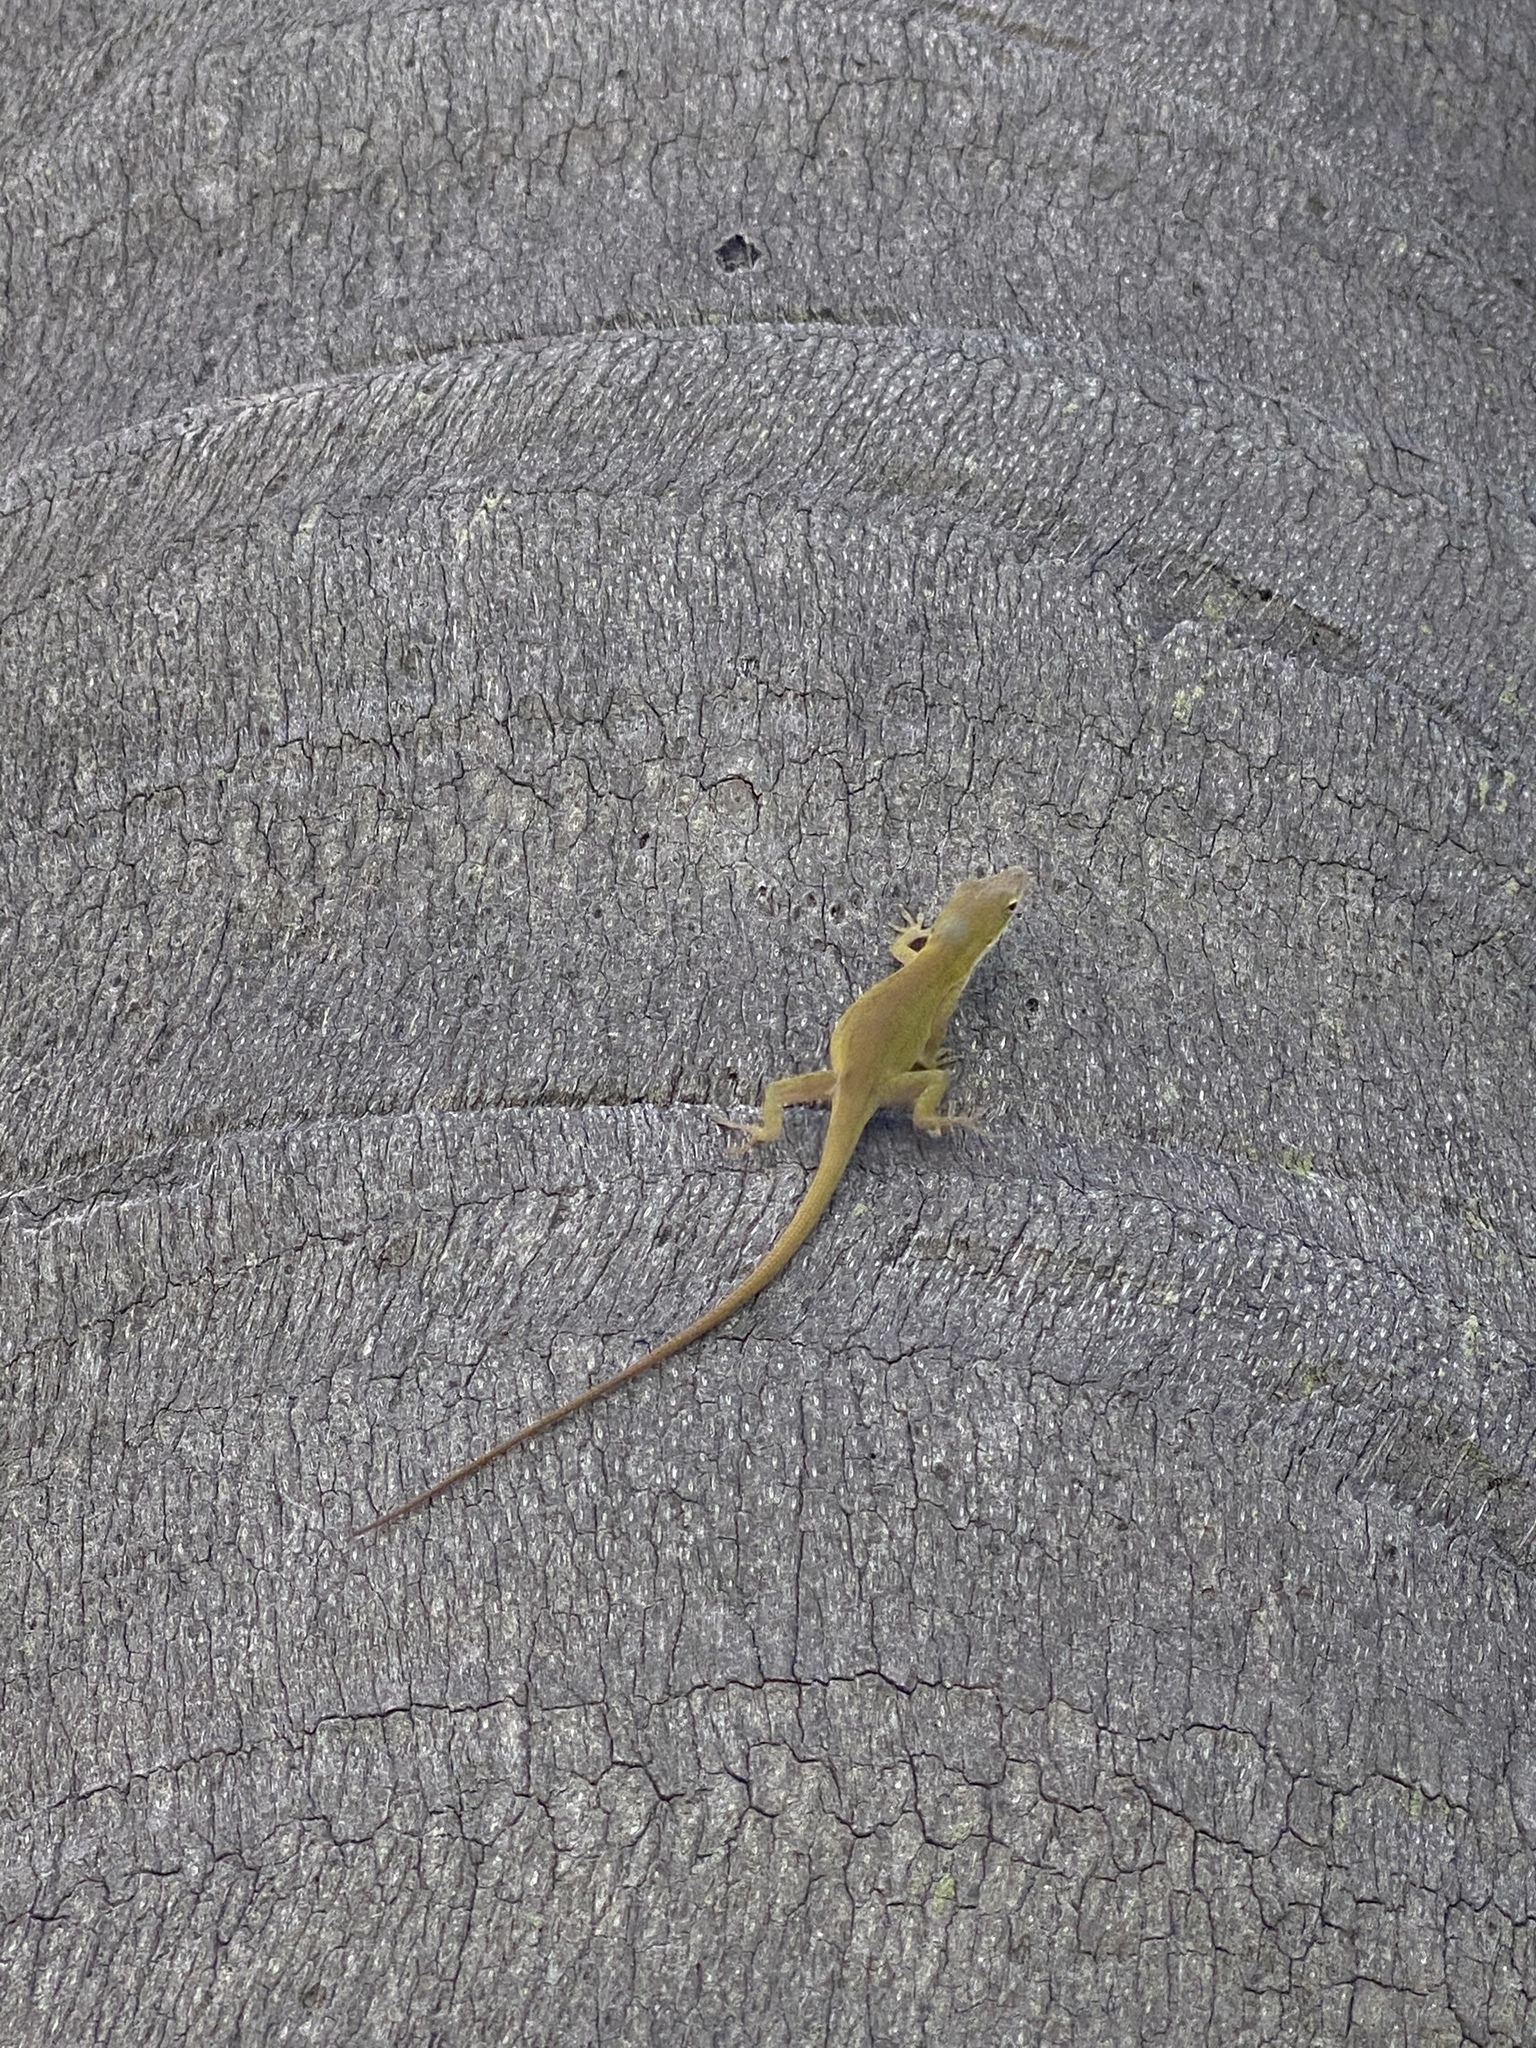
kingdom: Animalia
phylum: Chordata
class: Squamata
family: Dactyloidae
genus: Anolis
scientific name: Anolis carolinensis
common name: Green anole
